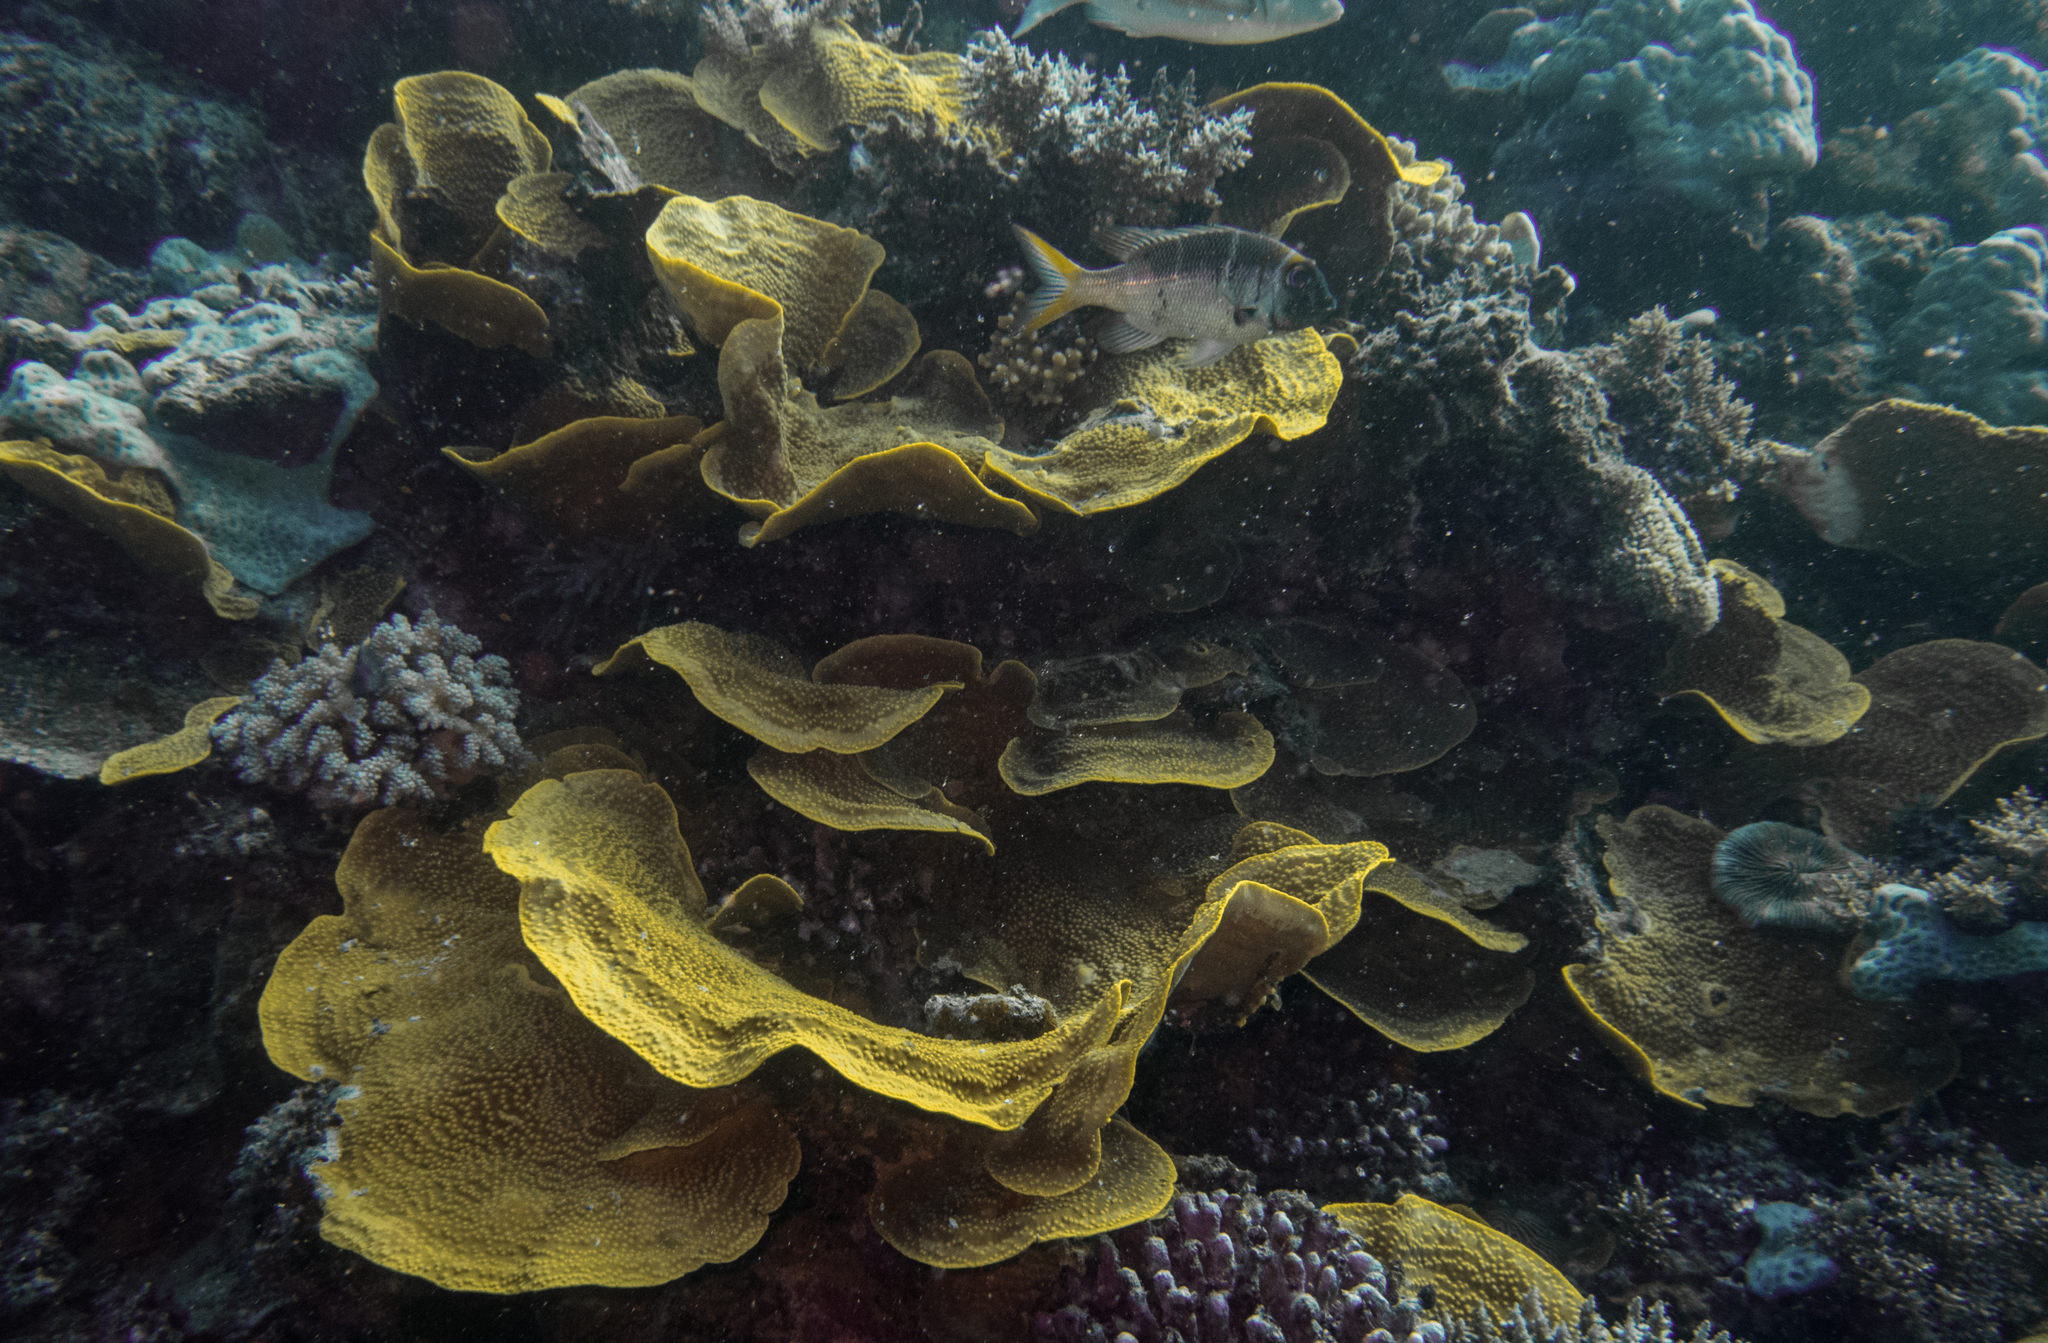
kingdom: Animalia
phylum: Cnidaria
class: Anthozoa
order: Scleractinia
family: Dendrophylliidae
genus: Turbinaria
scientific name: Turbinaria reniformis
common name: Disc coral
